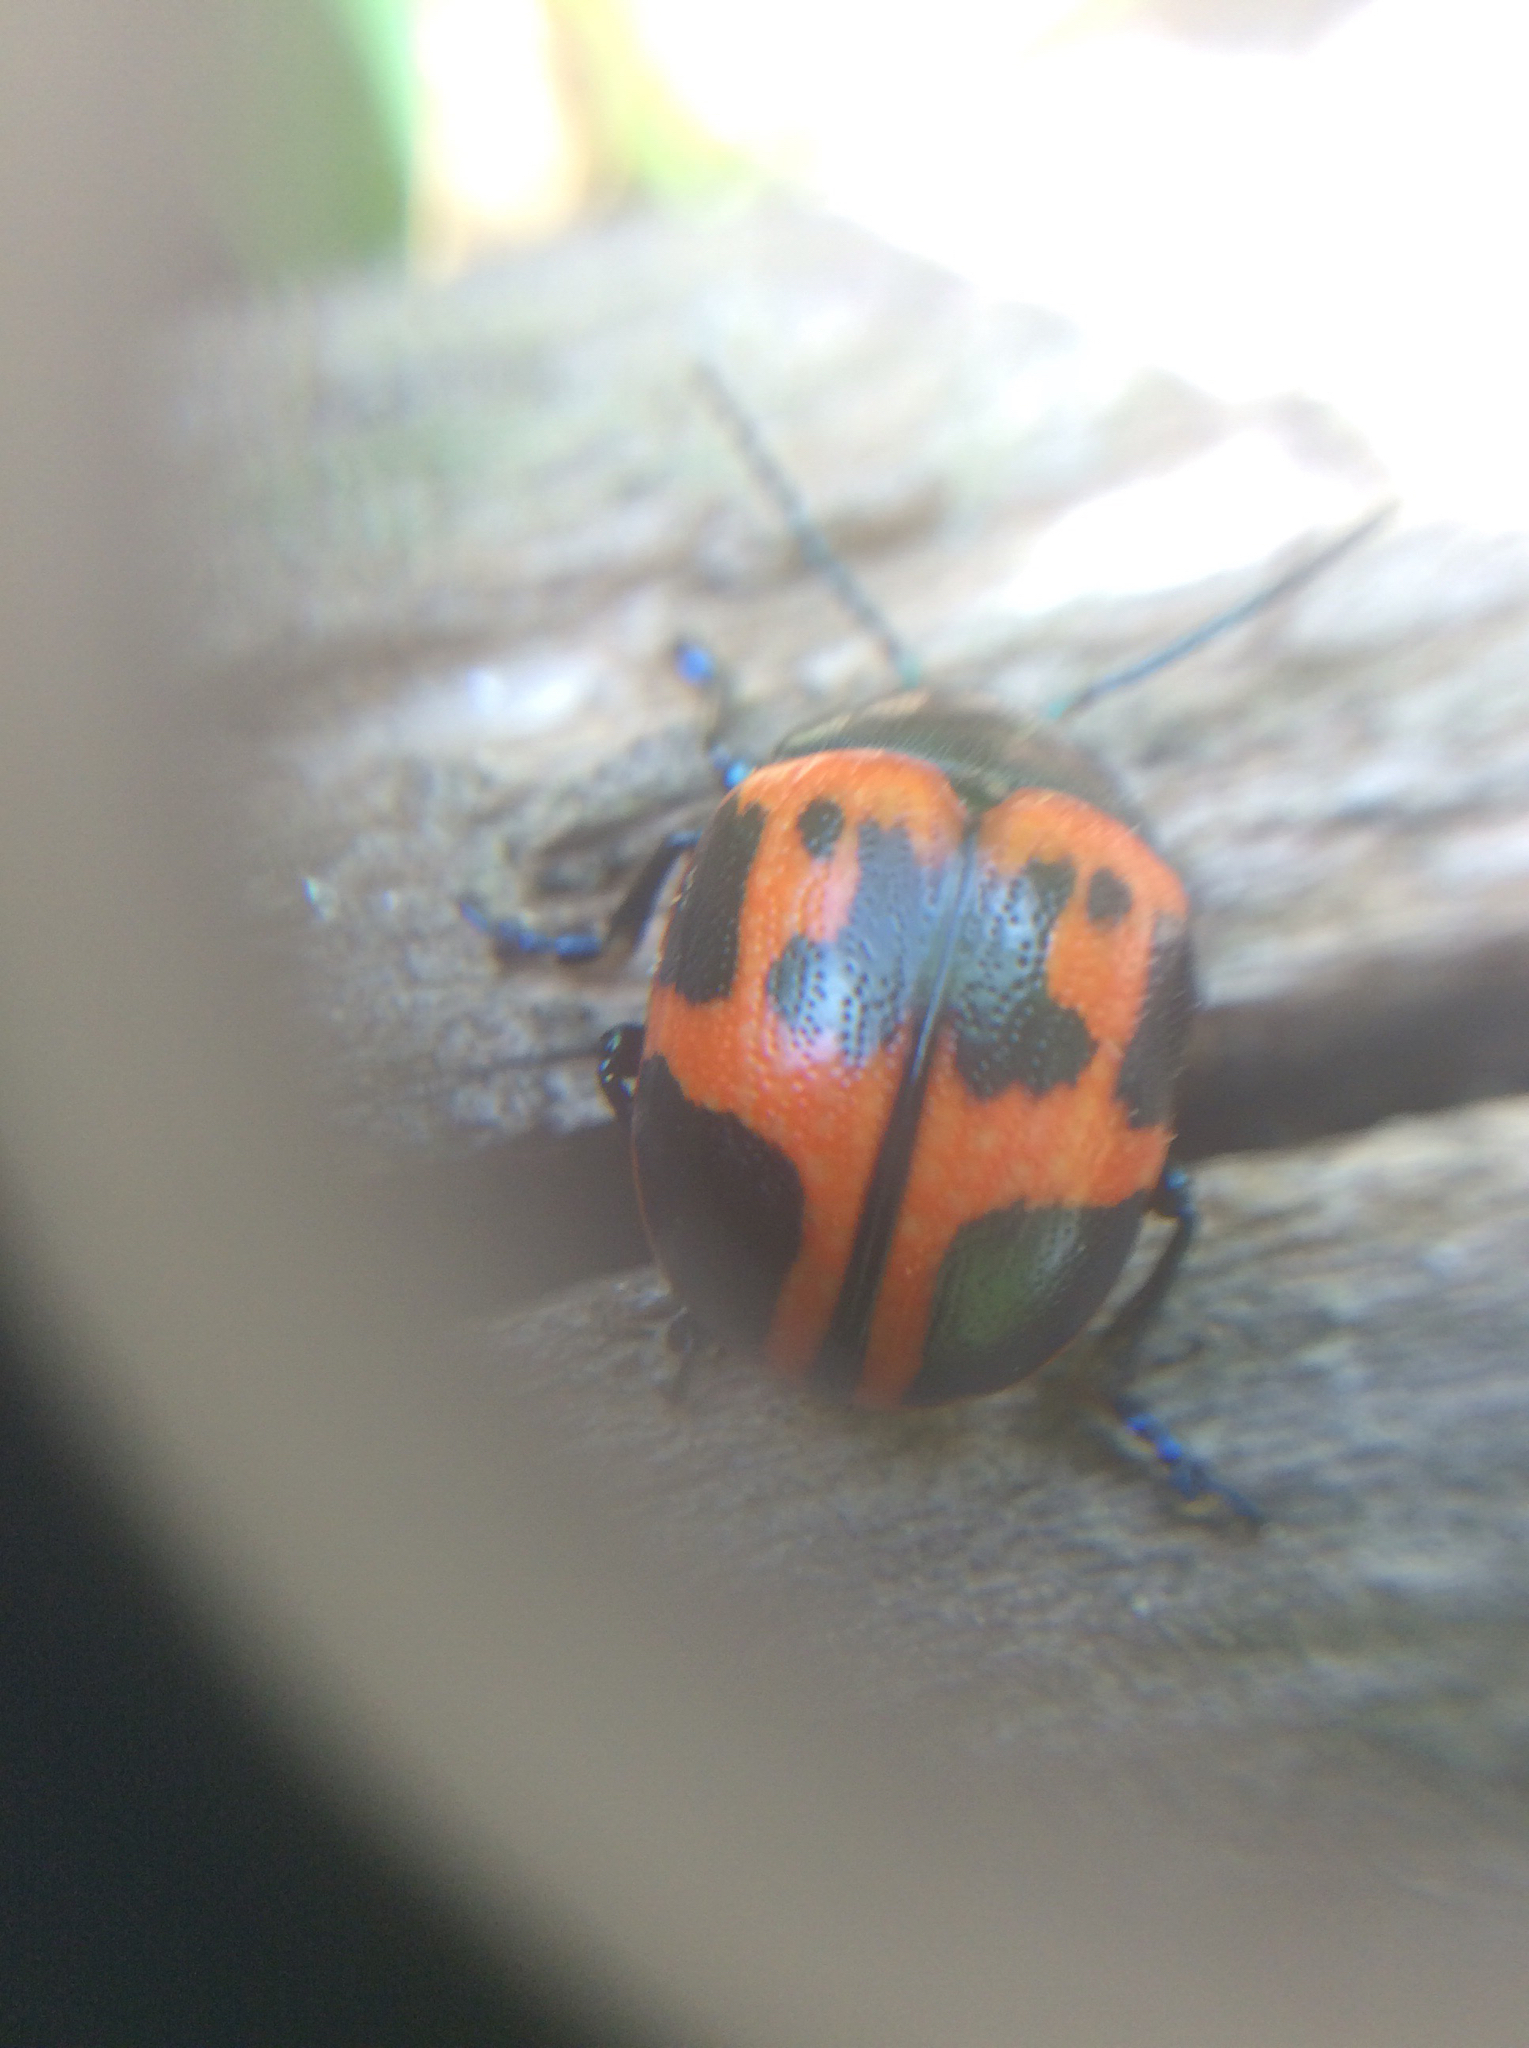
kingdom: Animalia
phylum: Arthropoda
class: Insecta
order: Coleoptera
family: Chrysomelidae
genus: Labidomera
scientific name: Labidomera clivicollis
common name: Swamp milkweed leaf beetle
